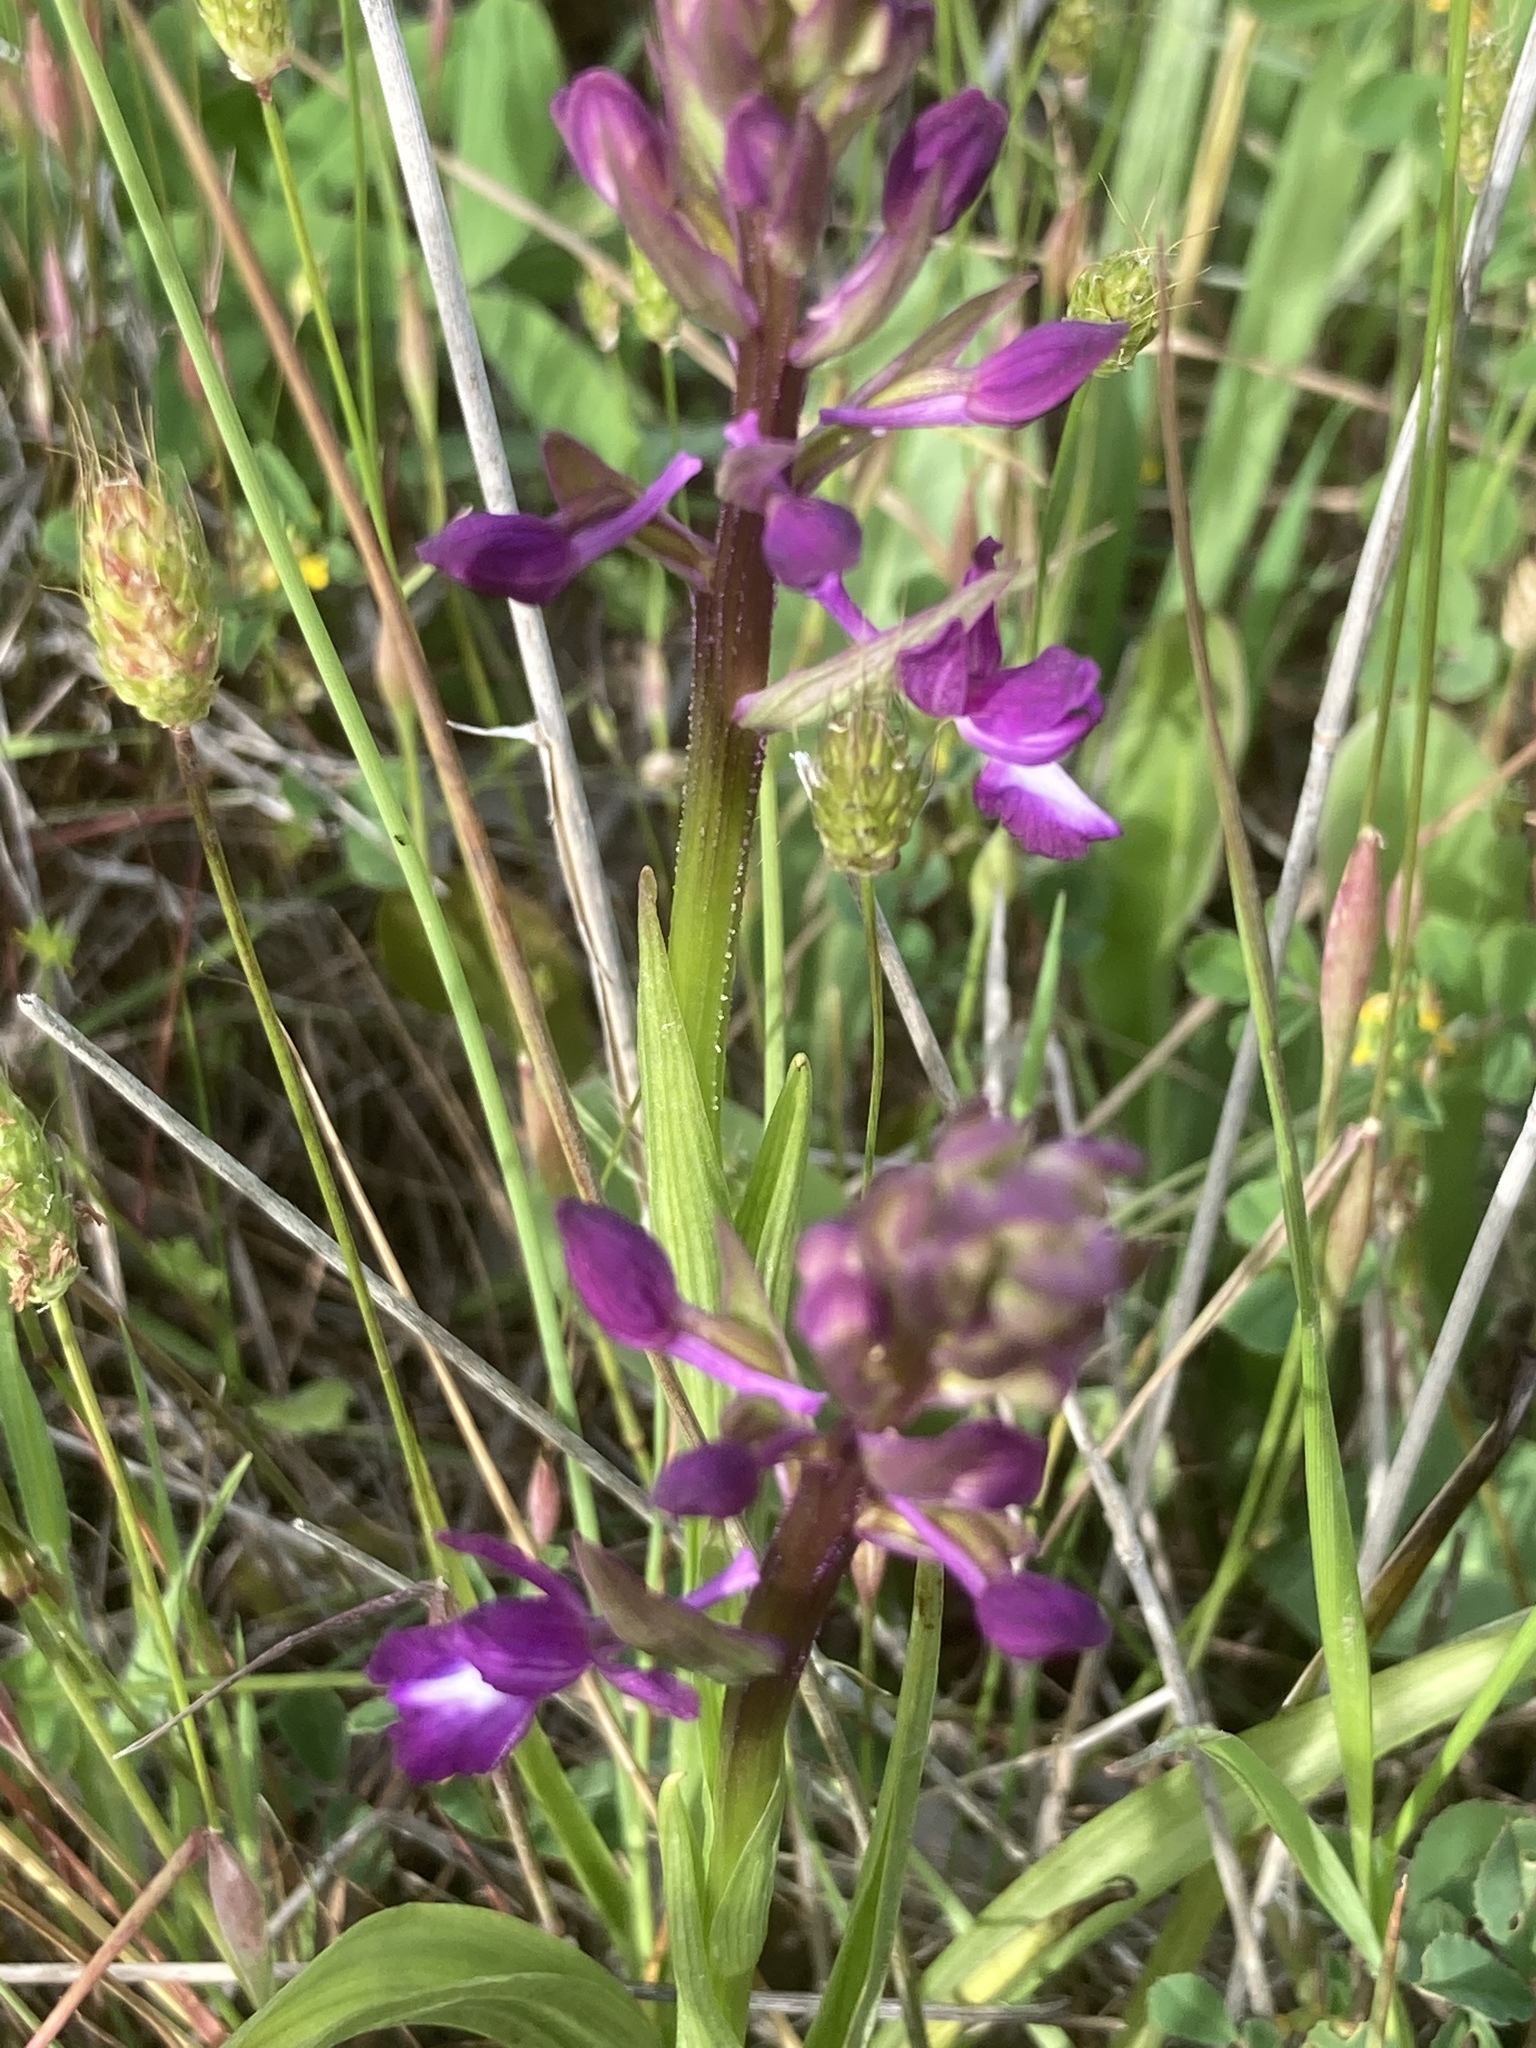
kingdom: Plantae
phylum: Tracheophyta
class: Liliopsida
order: Poales
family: Poaceae
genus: Cynosurus
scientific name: Cynosurus echinatus
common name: Rough dog's-tail
